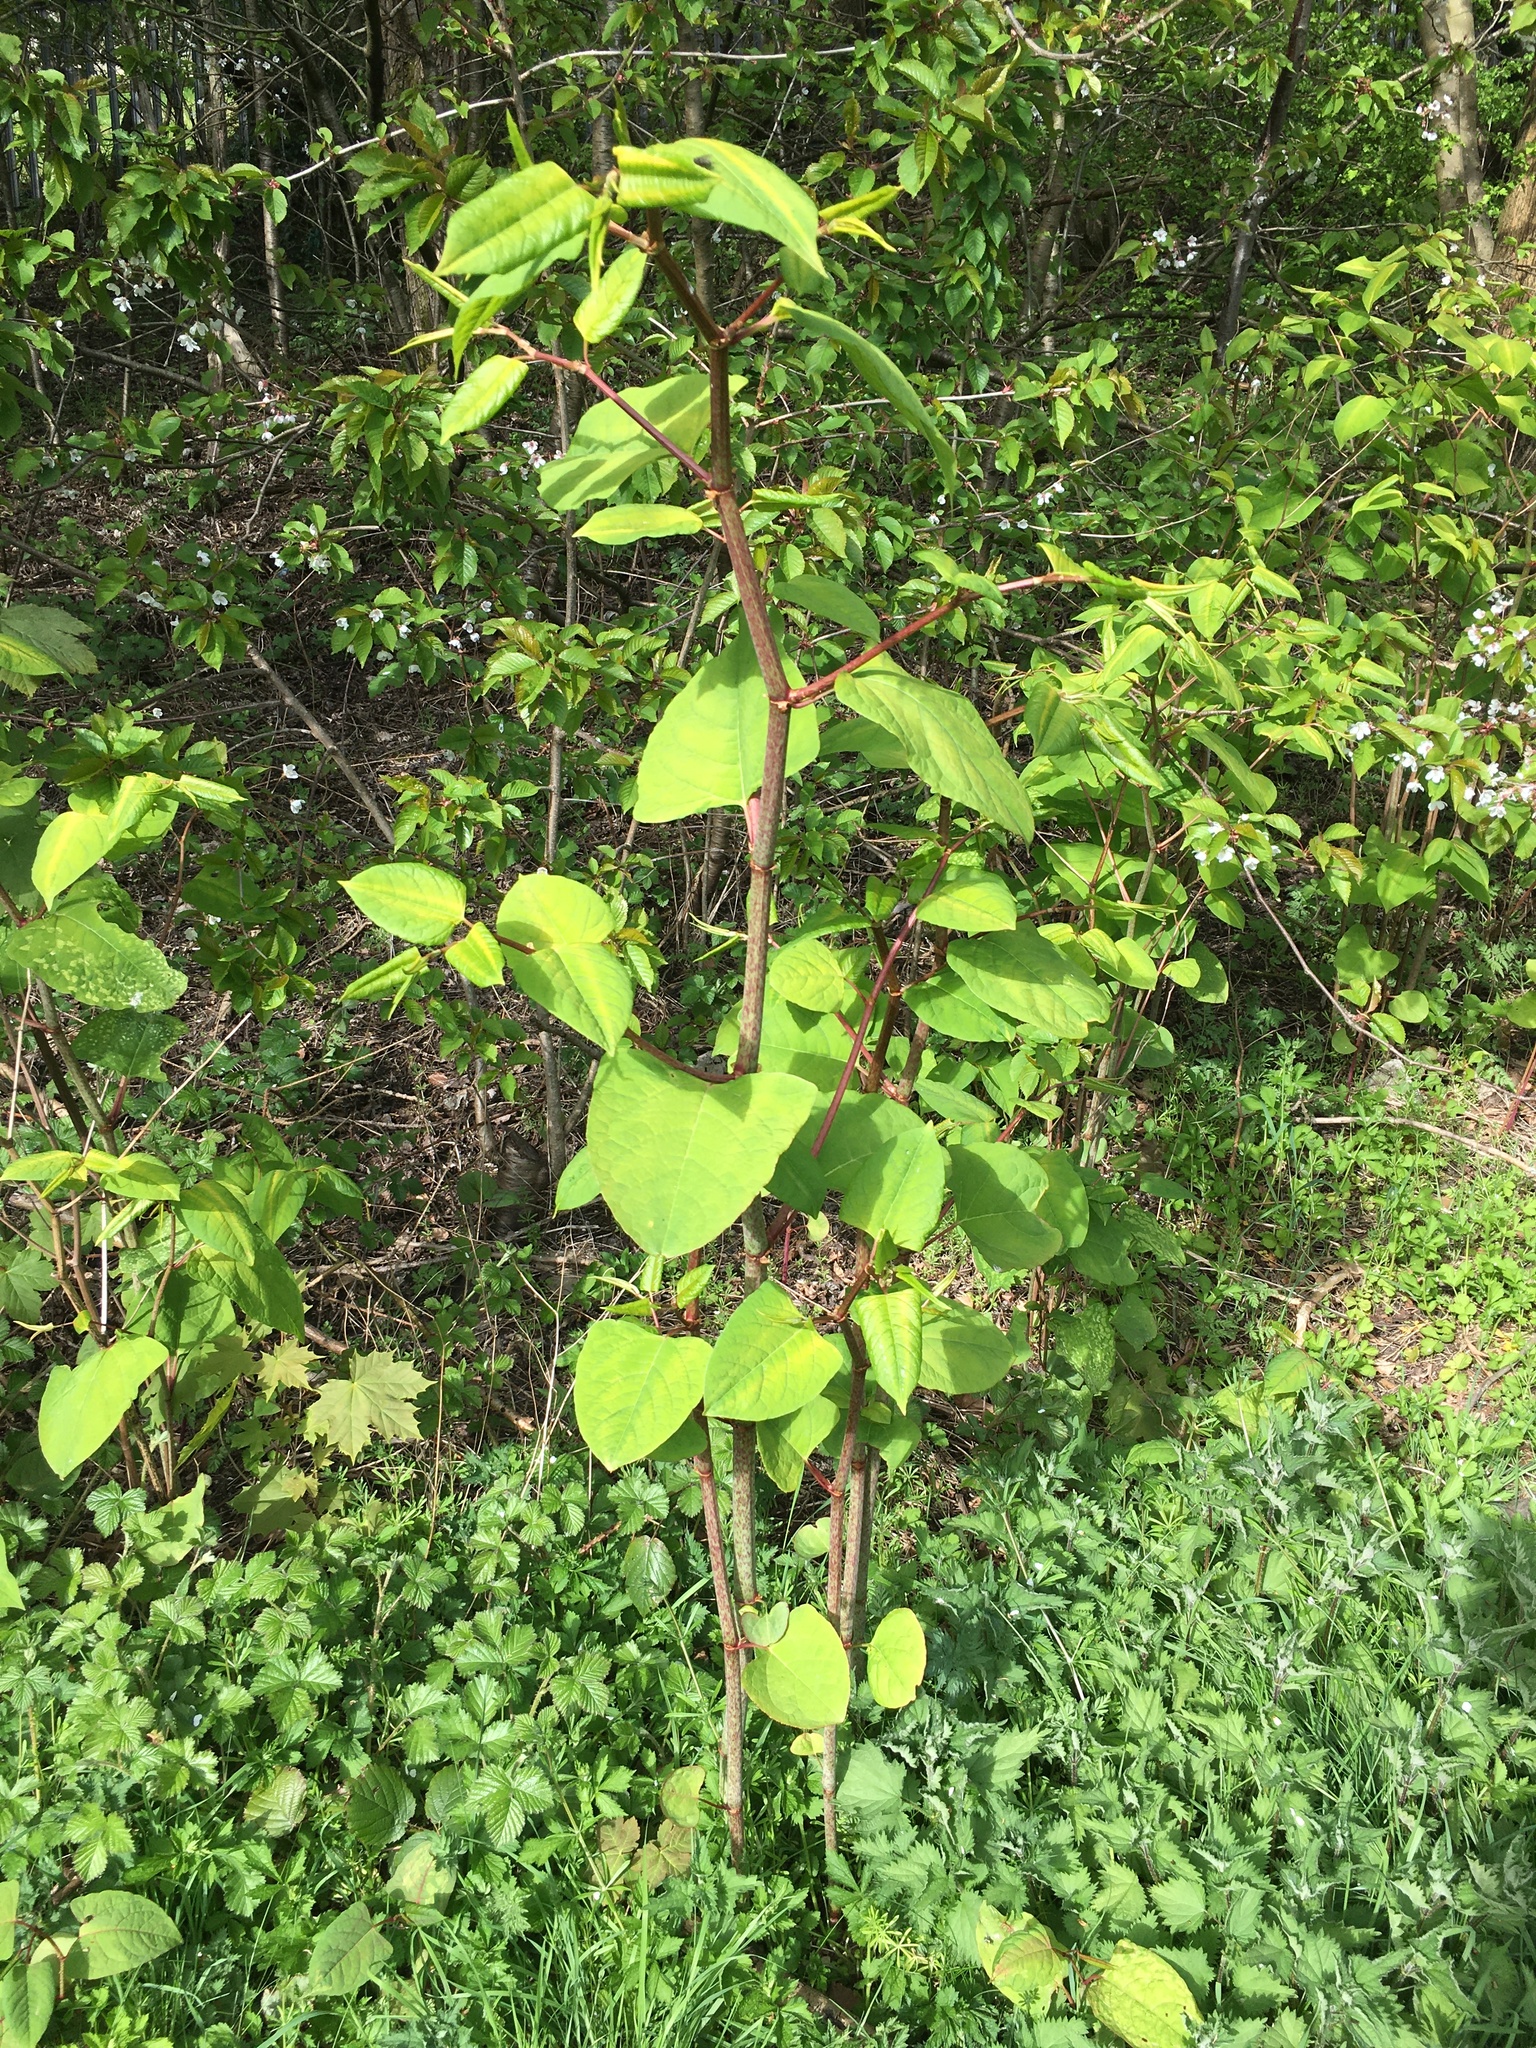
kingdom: Plantae
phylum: Tracheophyta
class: Magnoliopsida
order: Caryophyllales
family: Polygonaceae
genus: Reynoutria
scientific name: Reynoutria japonica
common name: Japanese knotweed
